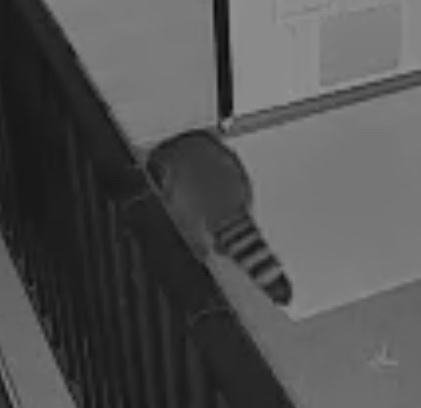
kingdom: Animalia
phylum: Chordata
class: Mammalia
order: Carnivora
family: Procyonidae
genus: Procyon
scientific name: Procyon lotor
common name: Raccoon
